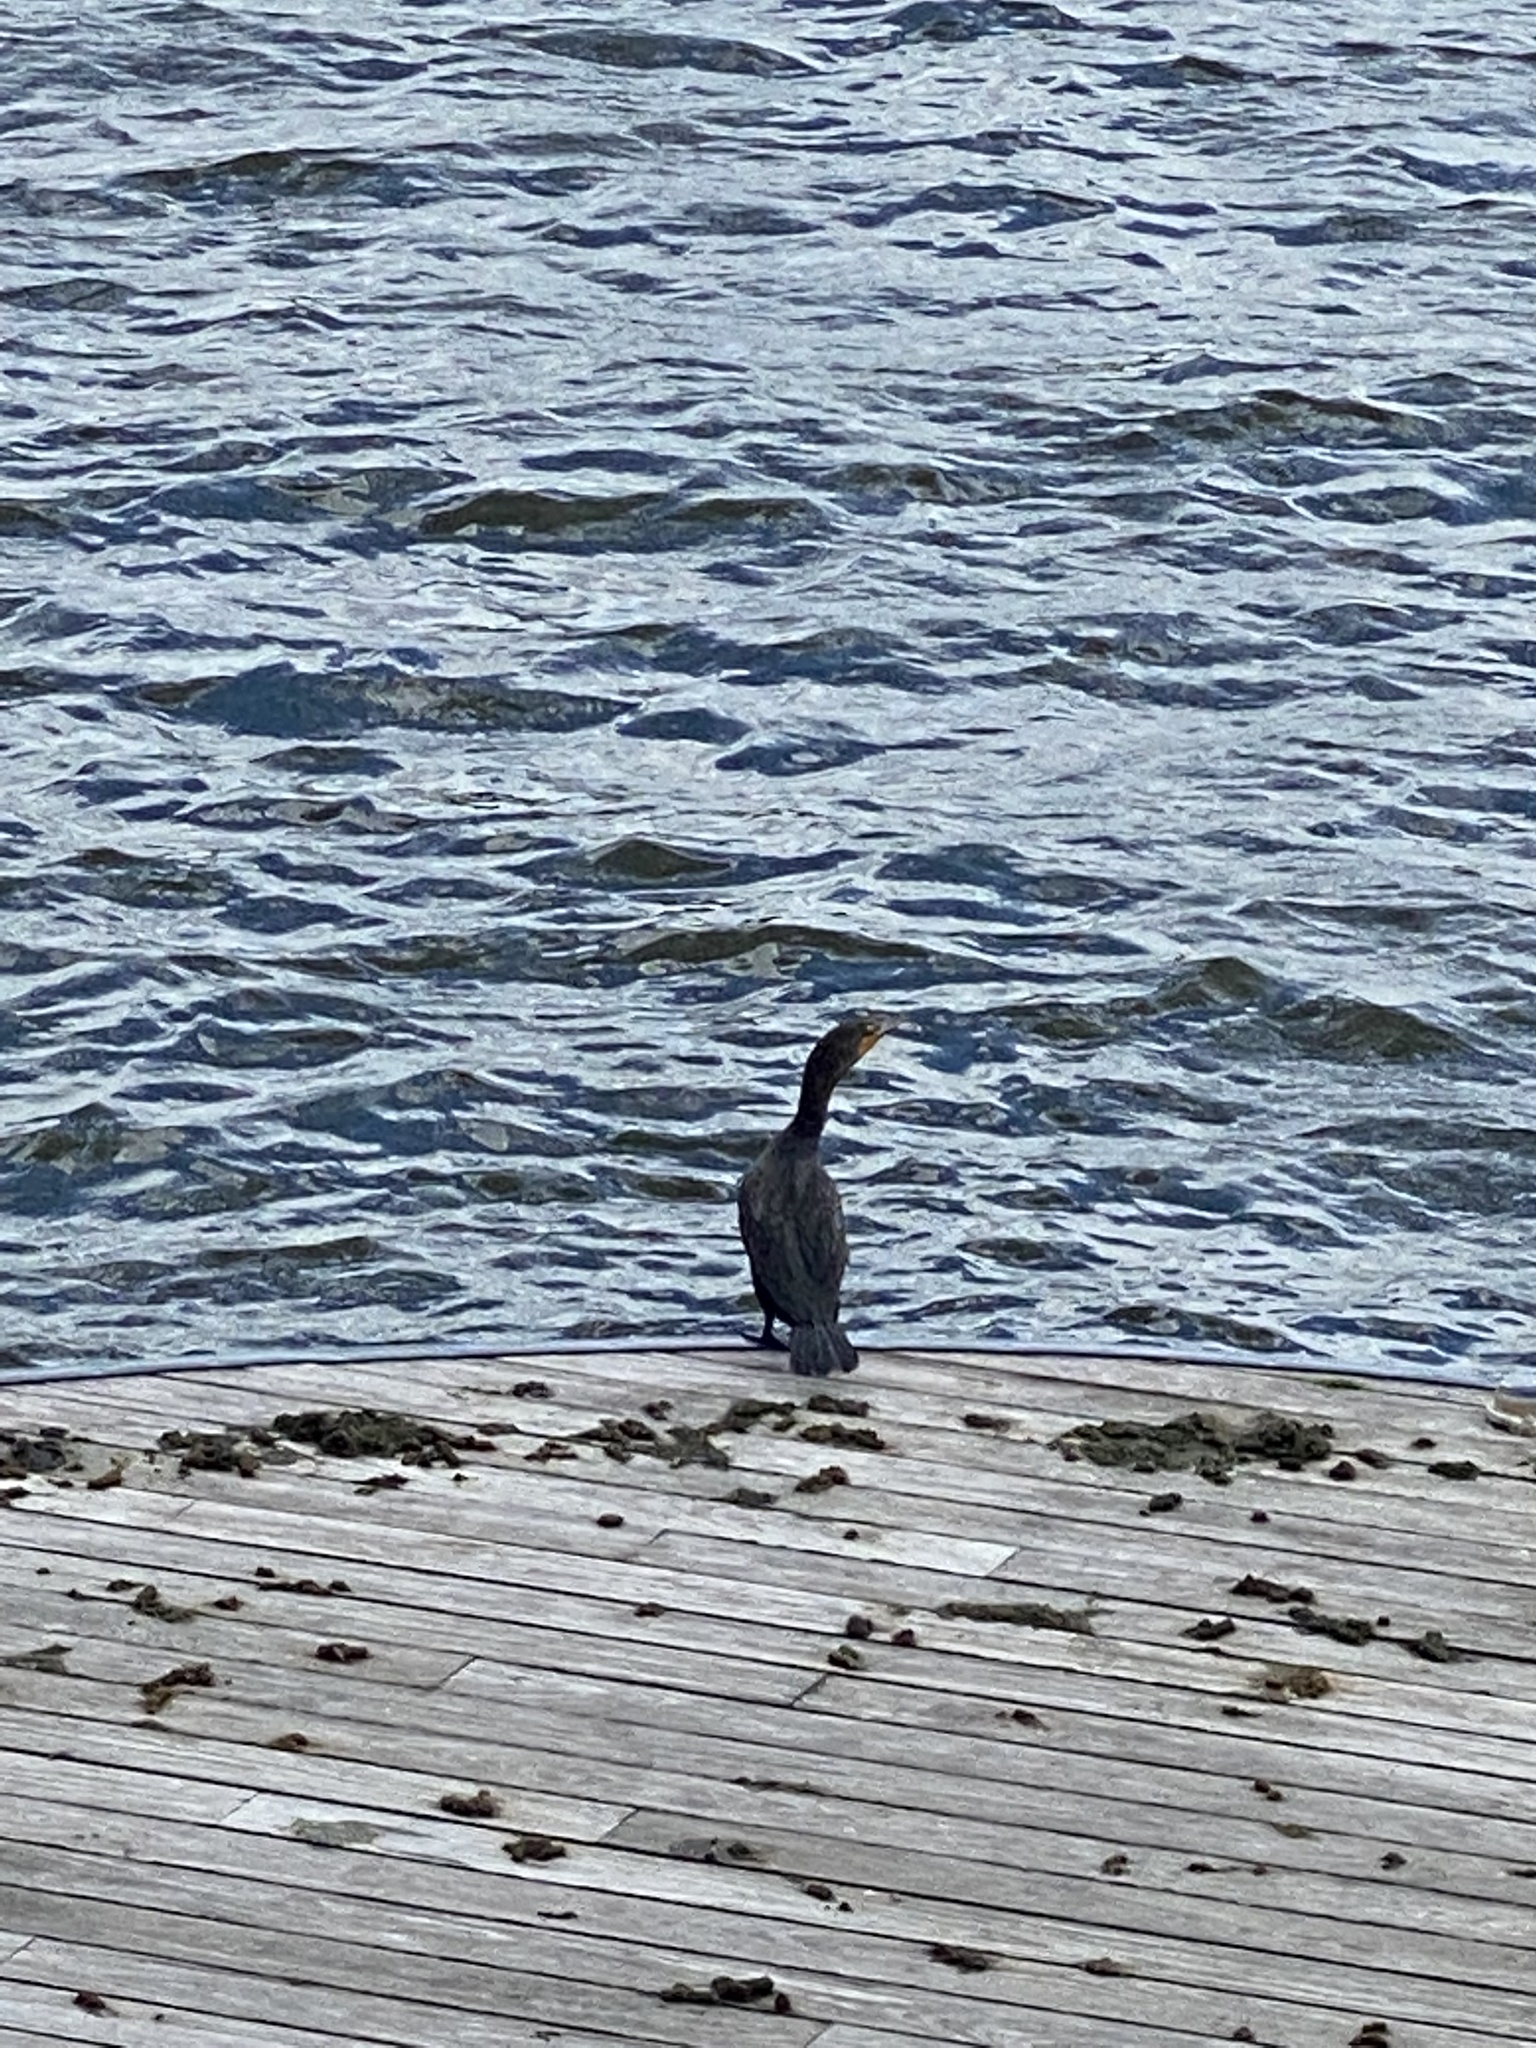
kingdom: Animalia
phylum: Chordata
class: Aves
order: Suliformes
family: Phalacrocoracidae
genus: Phalacrocorax
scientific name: Phalacrocorax auritus
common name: Double-crested cormorant
